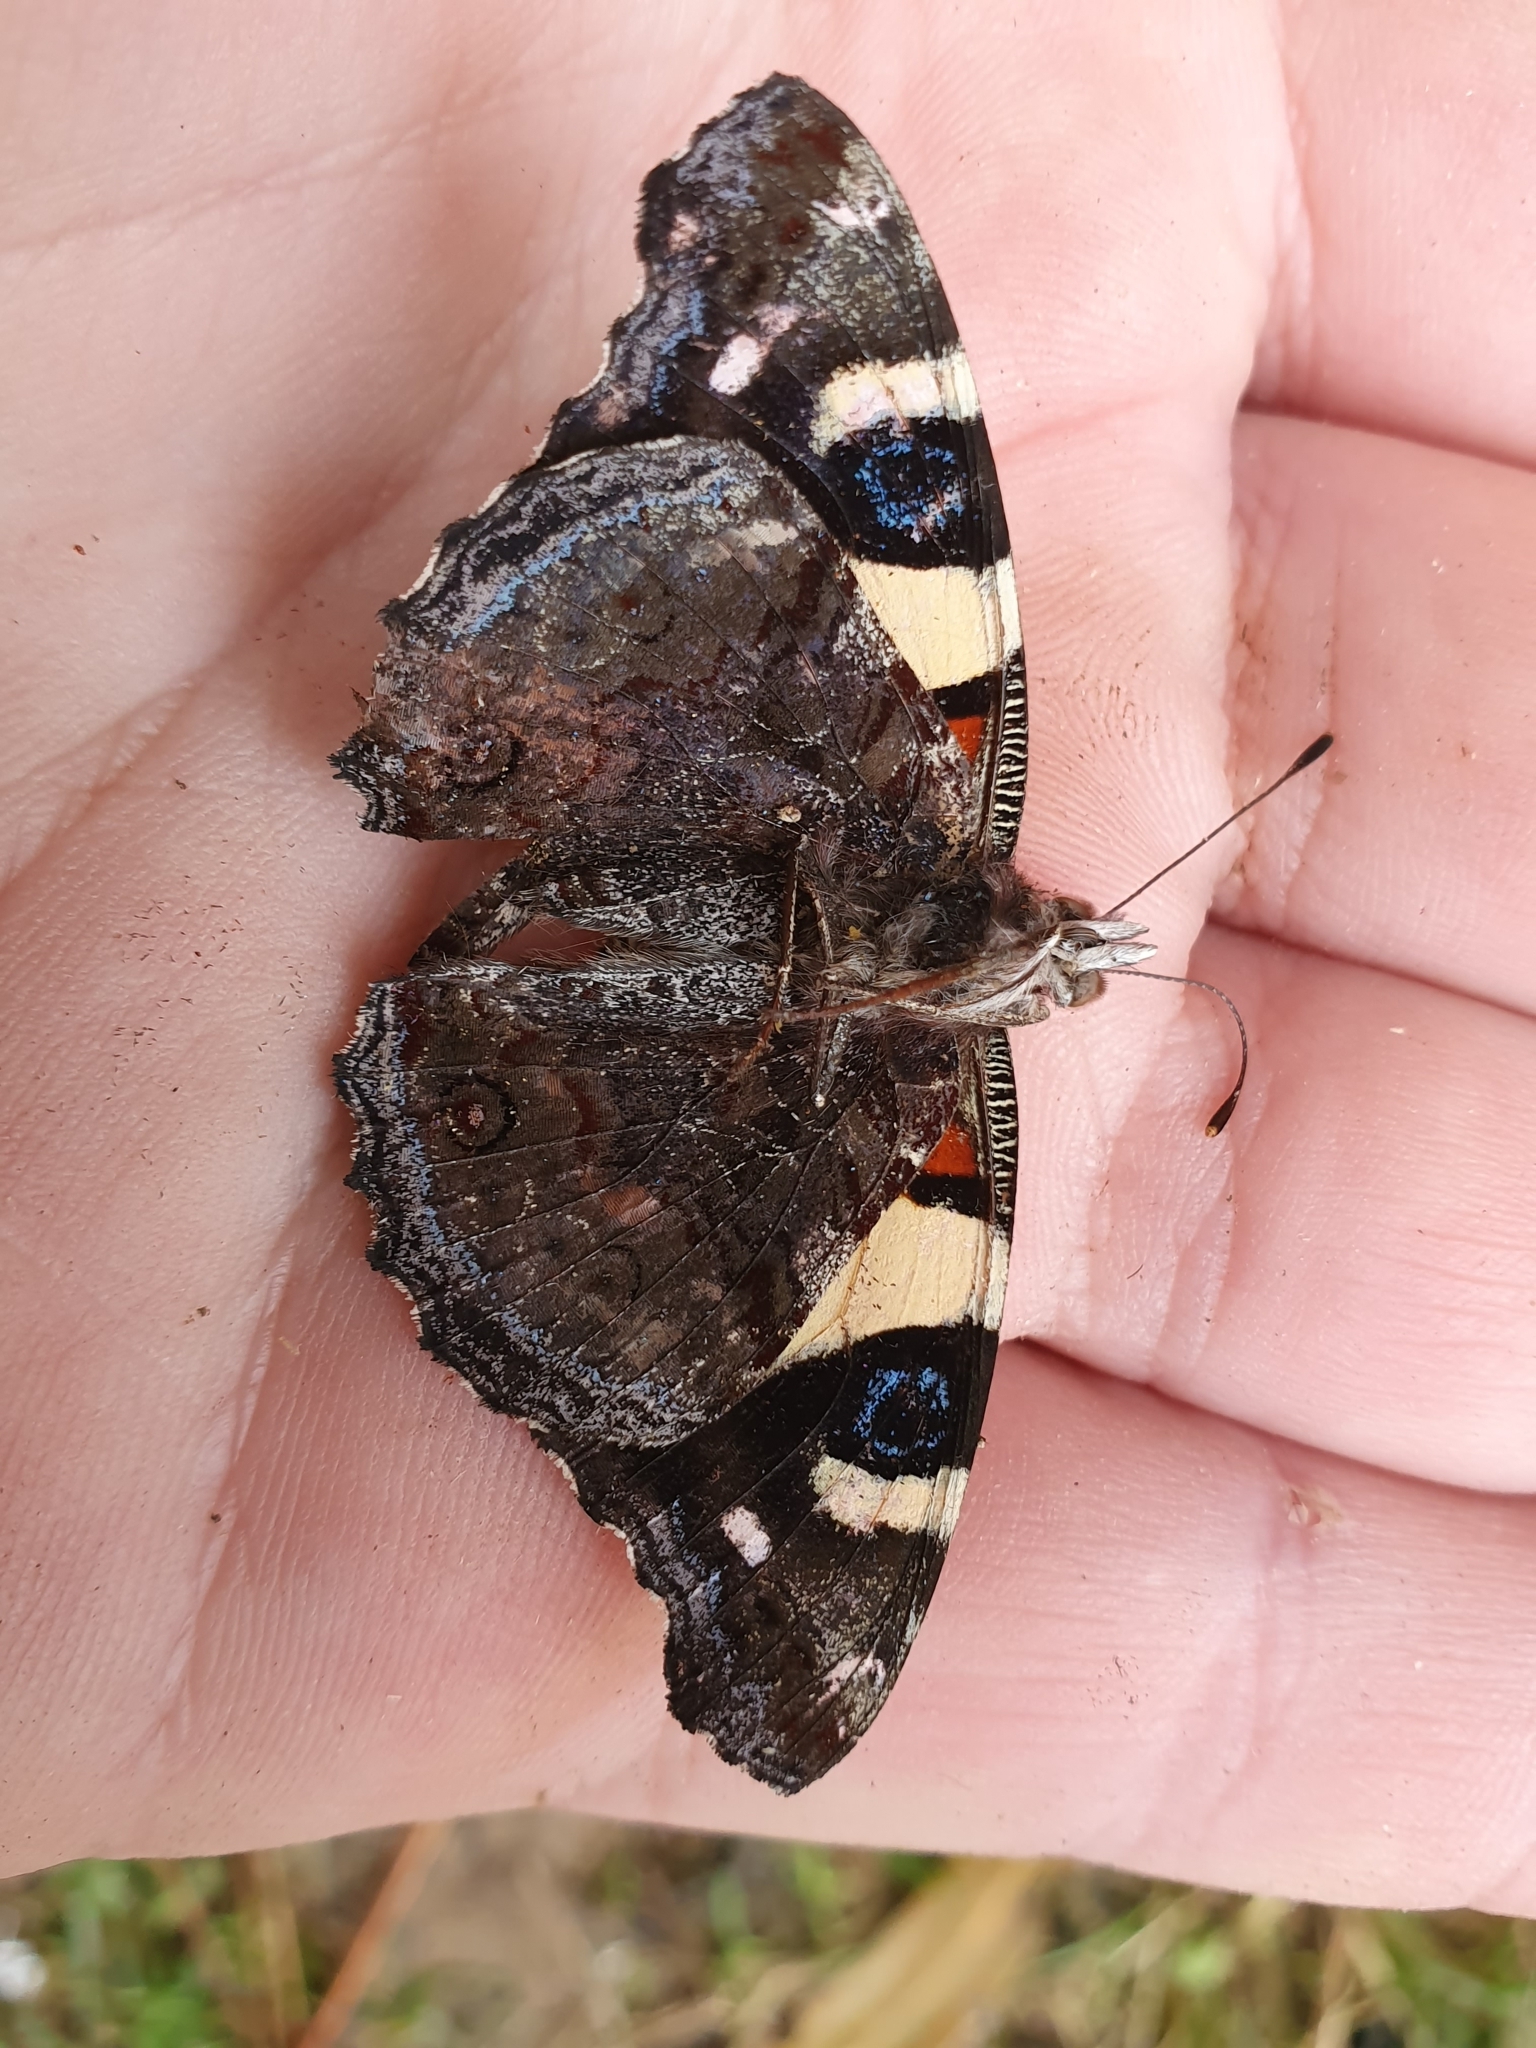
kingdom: Animalia
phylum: Arthropoda
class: Insecta
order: Lepidoptera
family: Nymphalidae
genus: Vanessa
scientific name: Vanessa itea
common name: Yellow admiral
